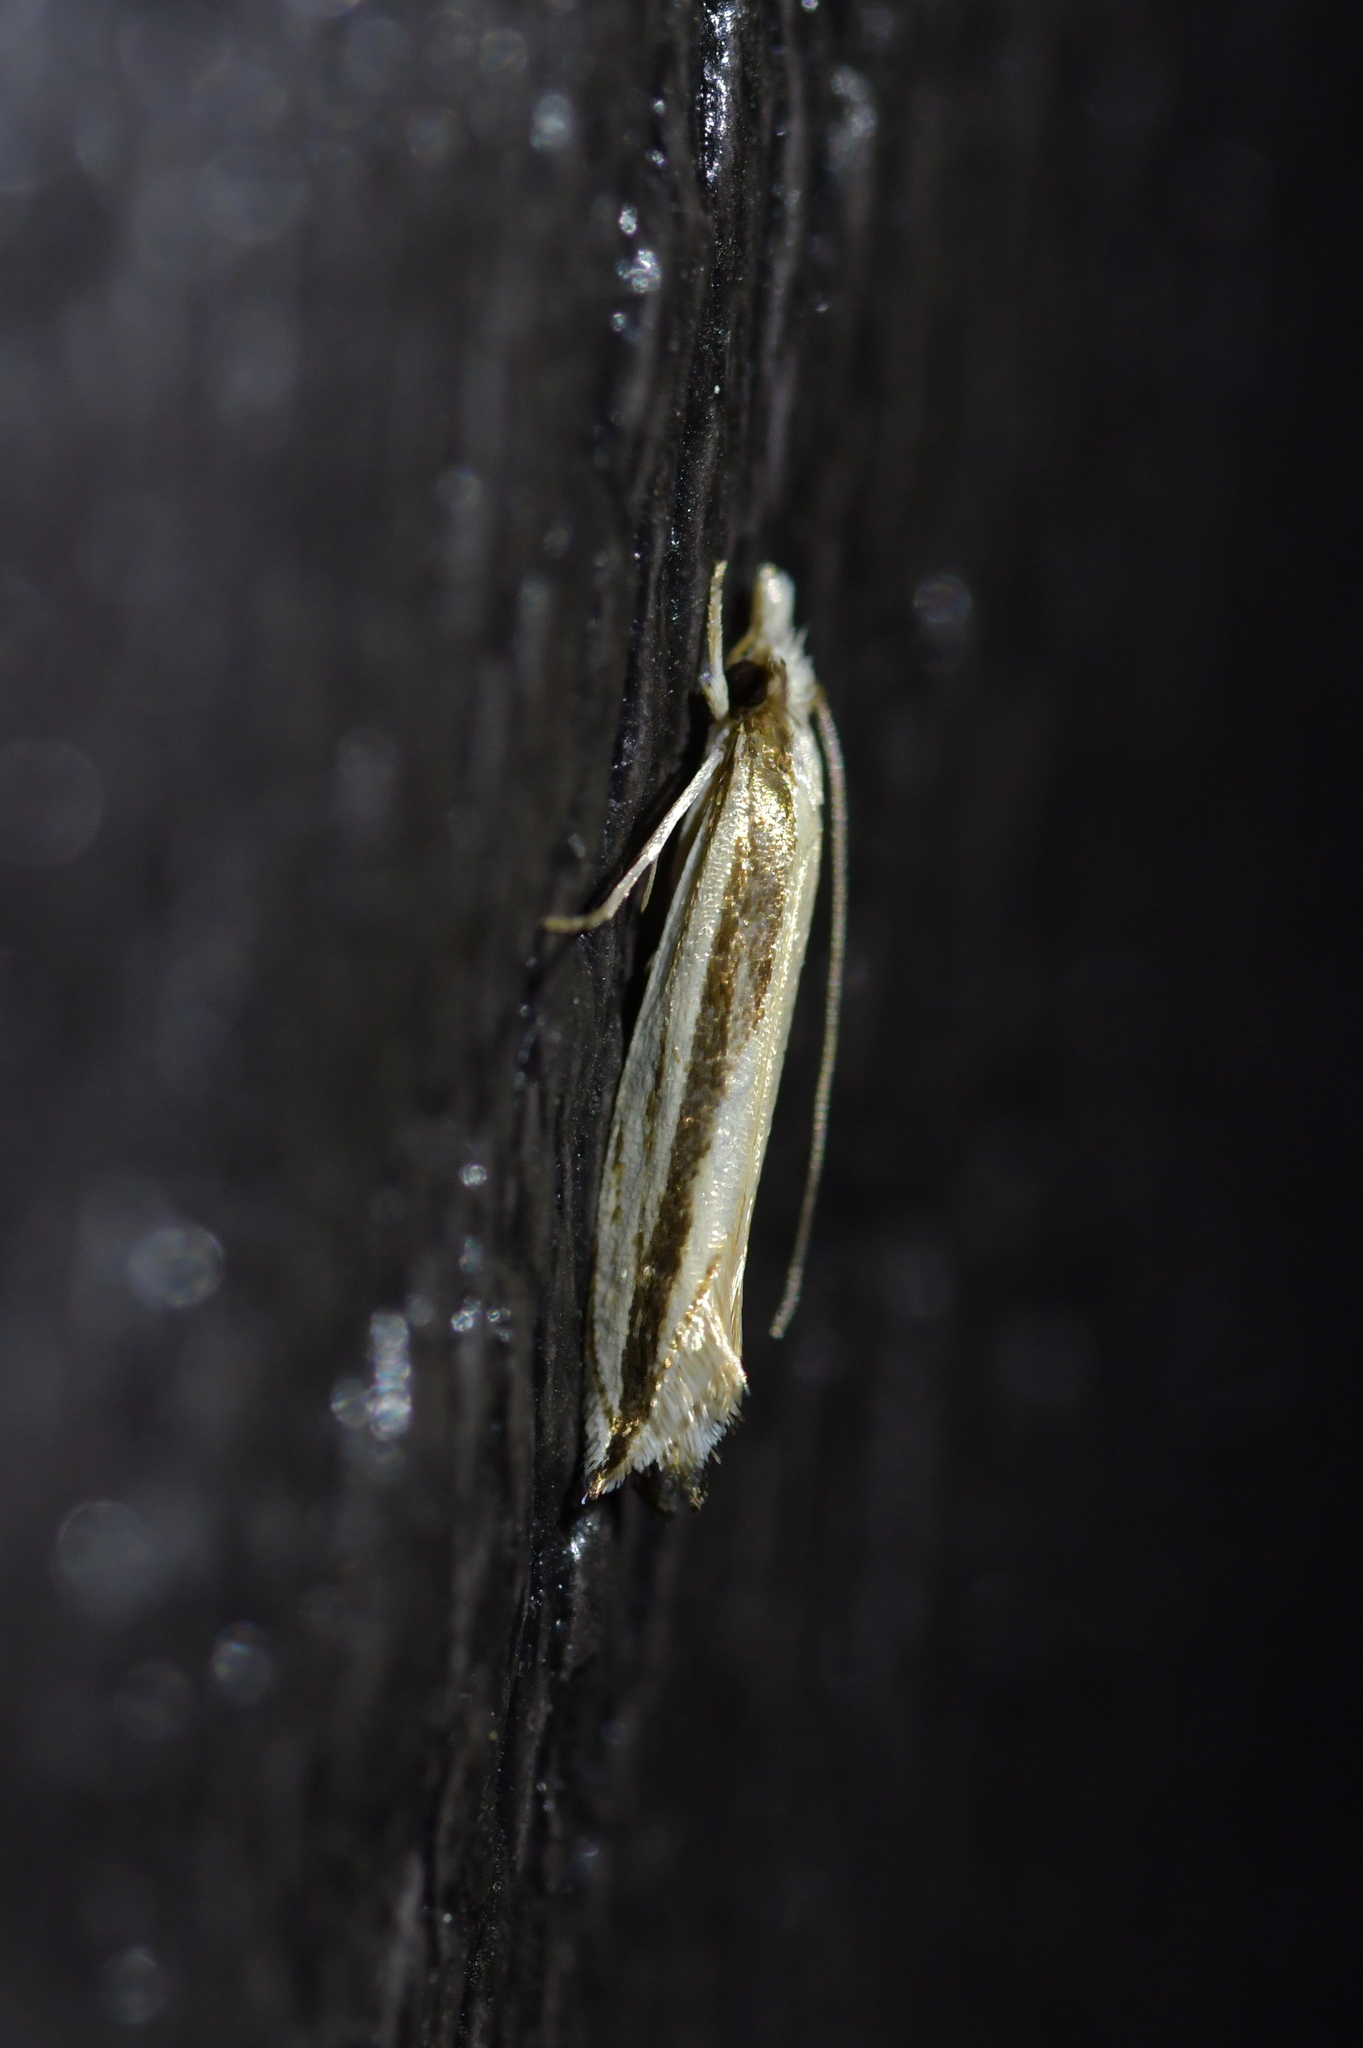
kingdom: Animalia
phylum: Arthropoda
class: Insecta
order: Lepidoptera
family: Tineidae
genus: Erechthias
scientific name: Erechthias stilbella
